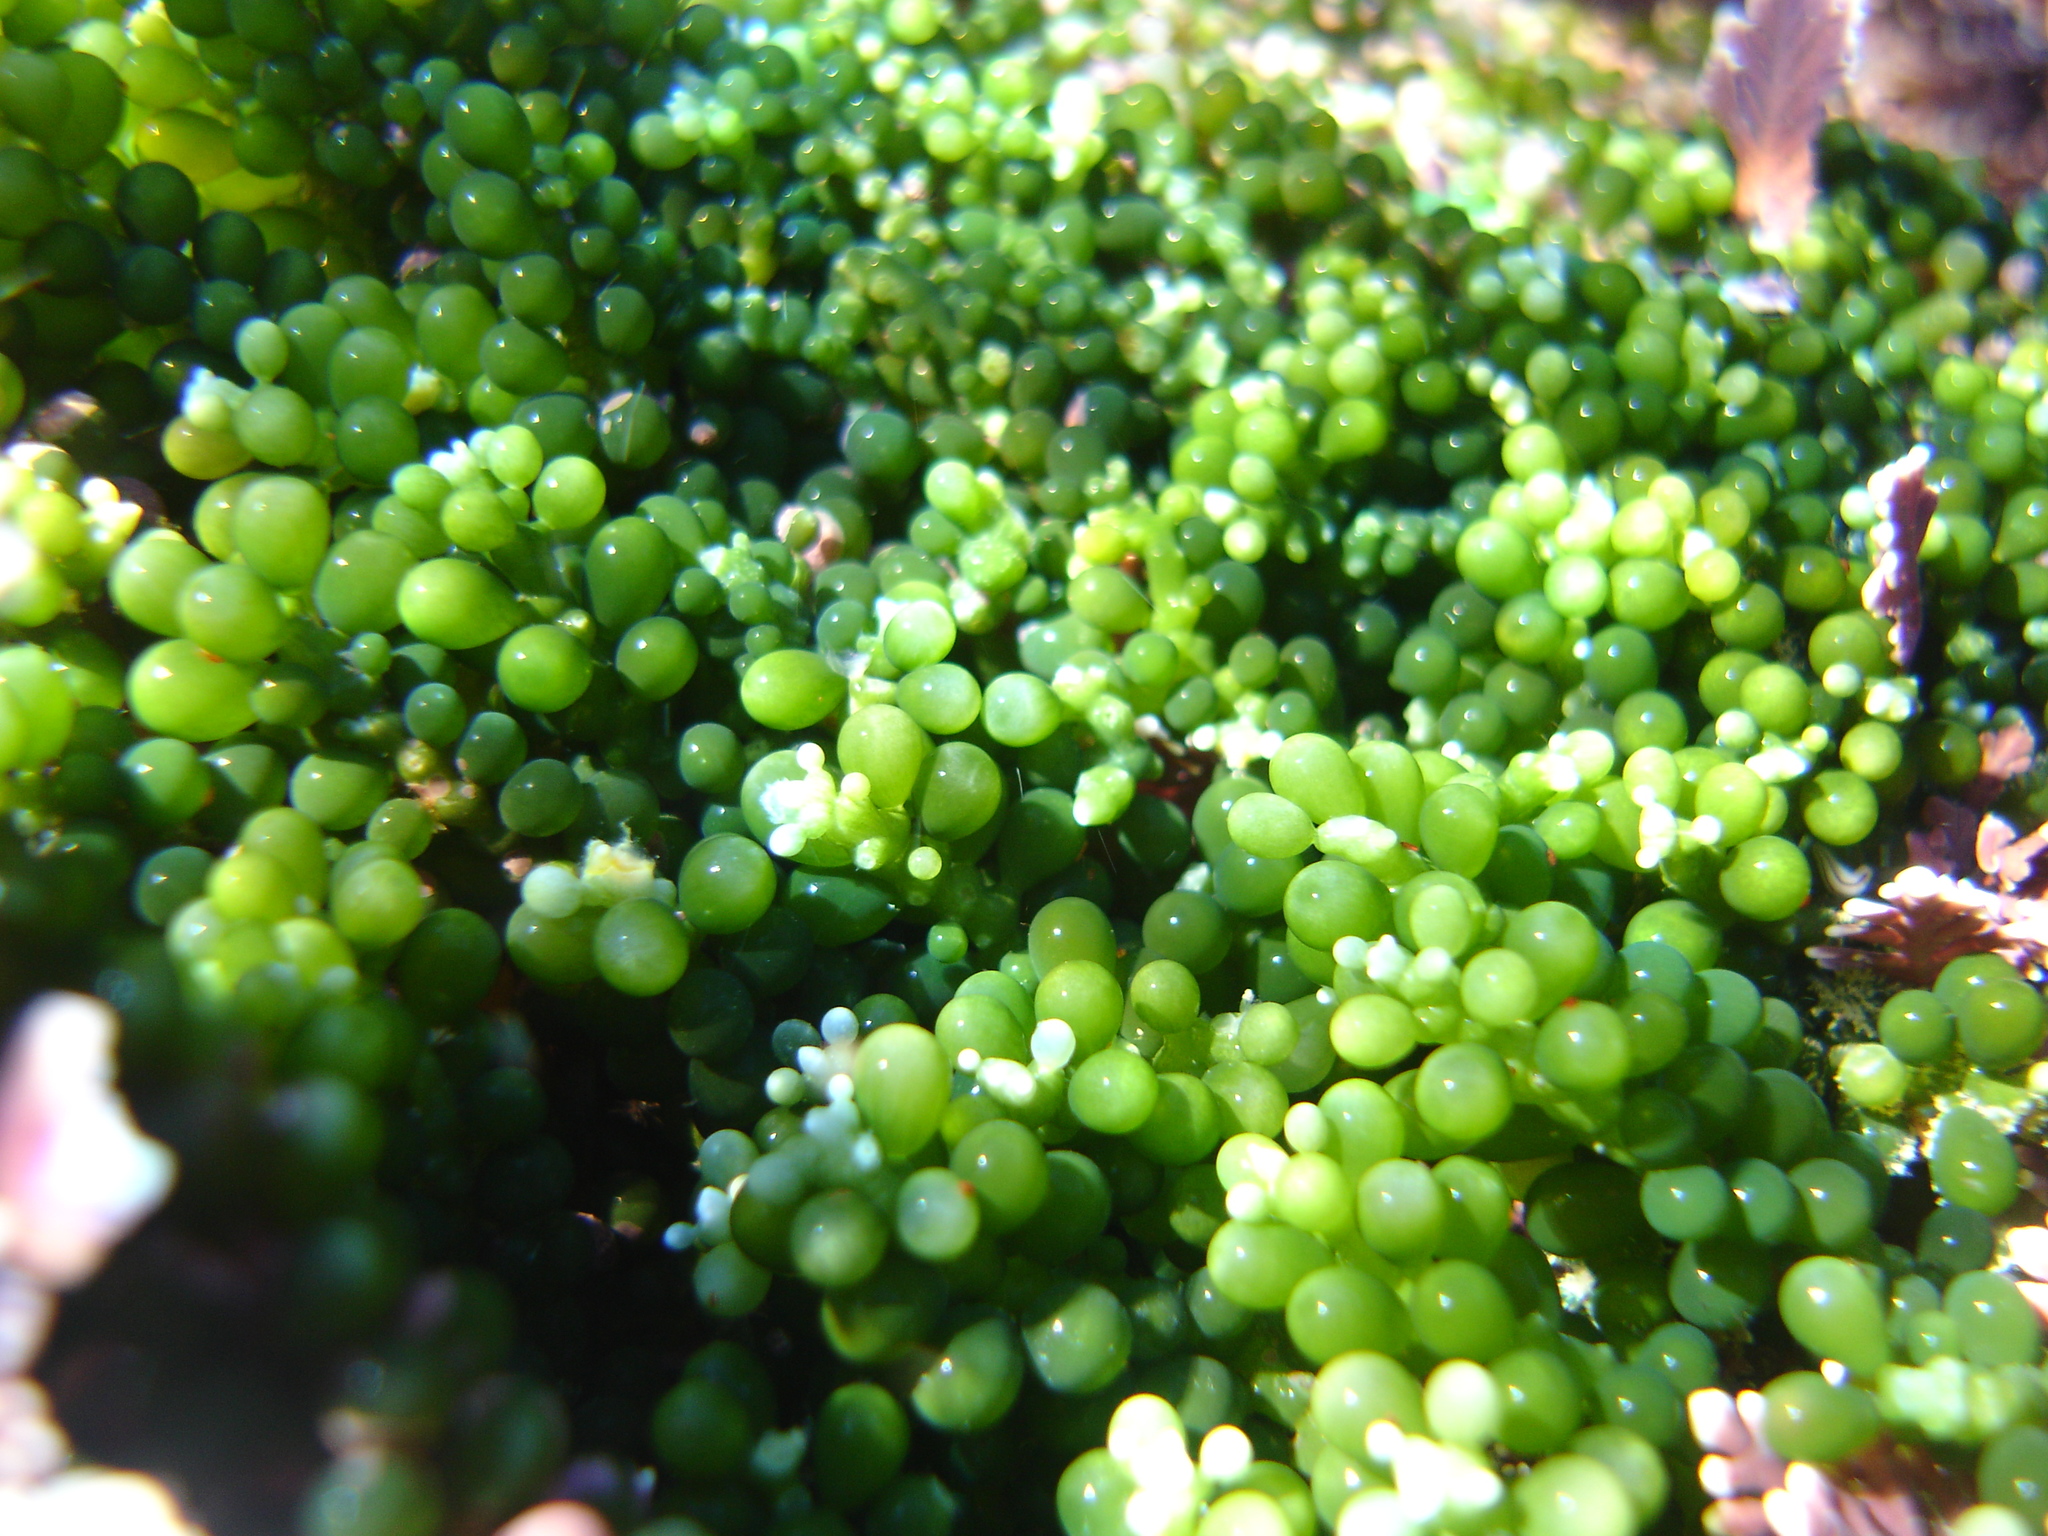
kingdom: Plantae
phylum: Chlorophyta
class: Ulvophyceae
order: Bryopsidales
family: Caulerpaceae
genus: Caulerpa
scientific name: Caulerpa geminata
